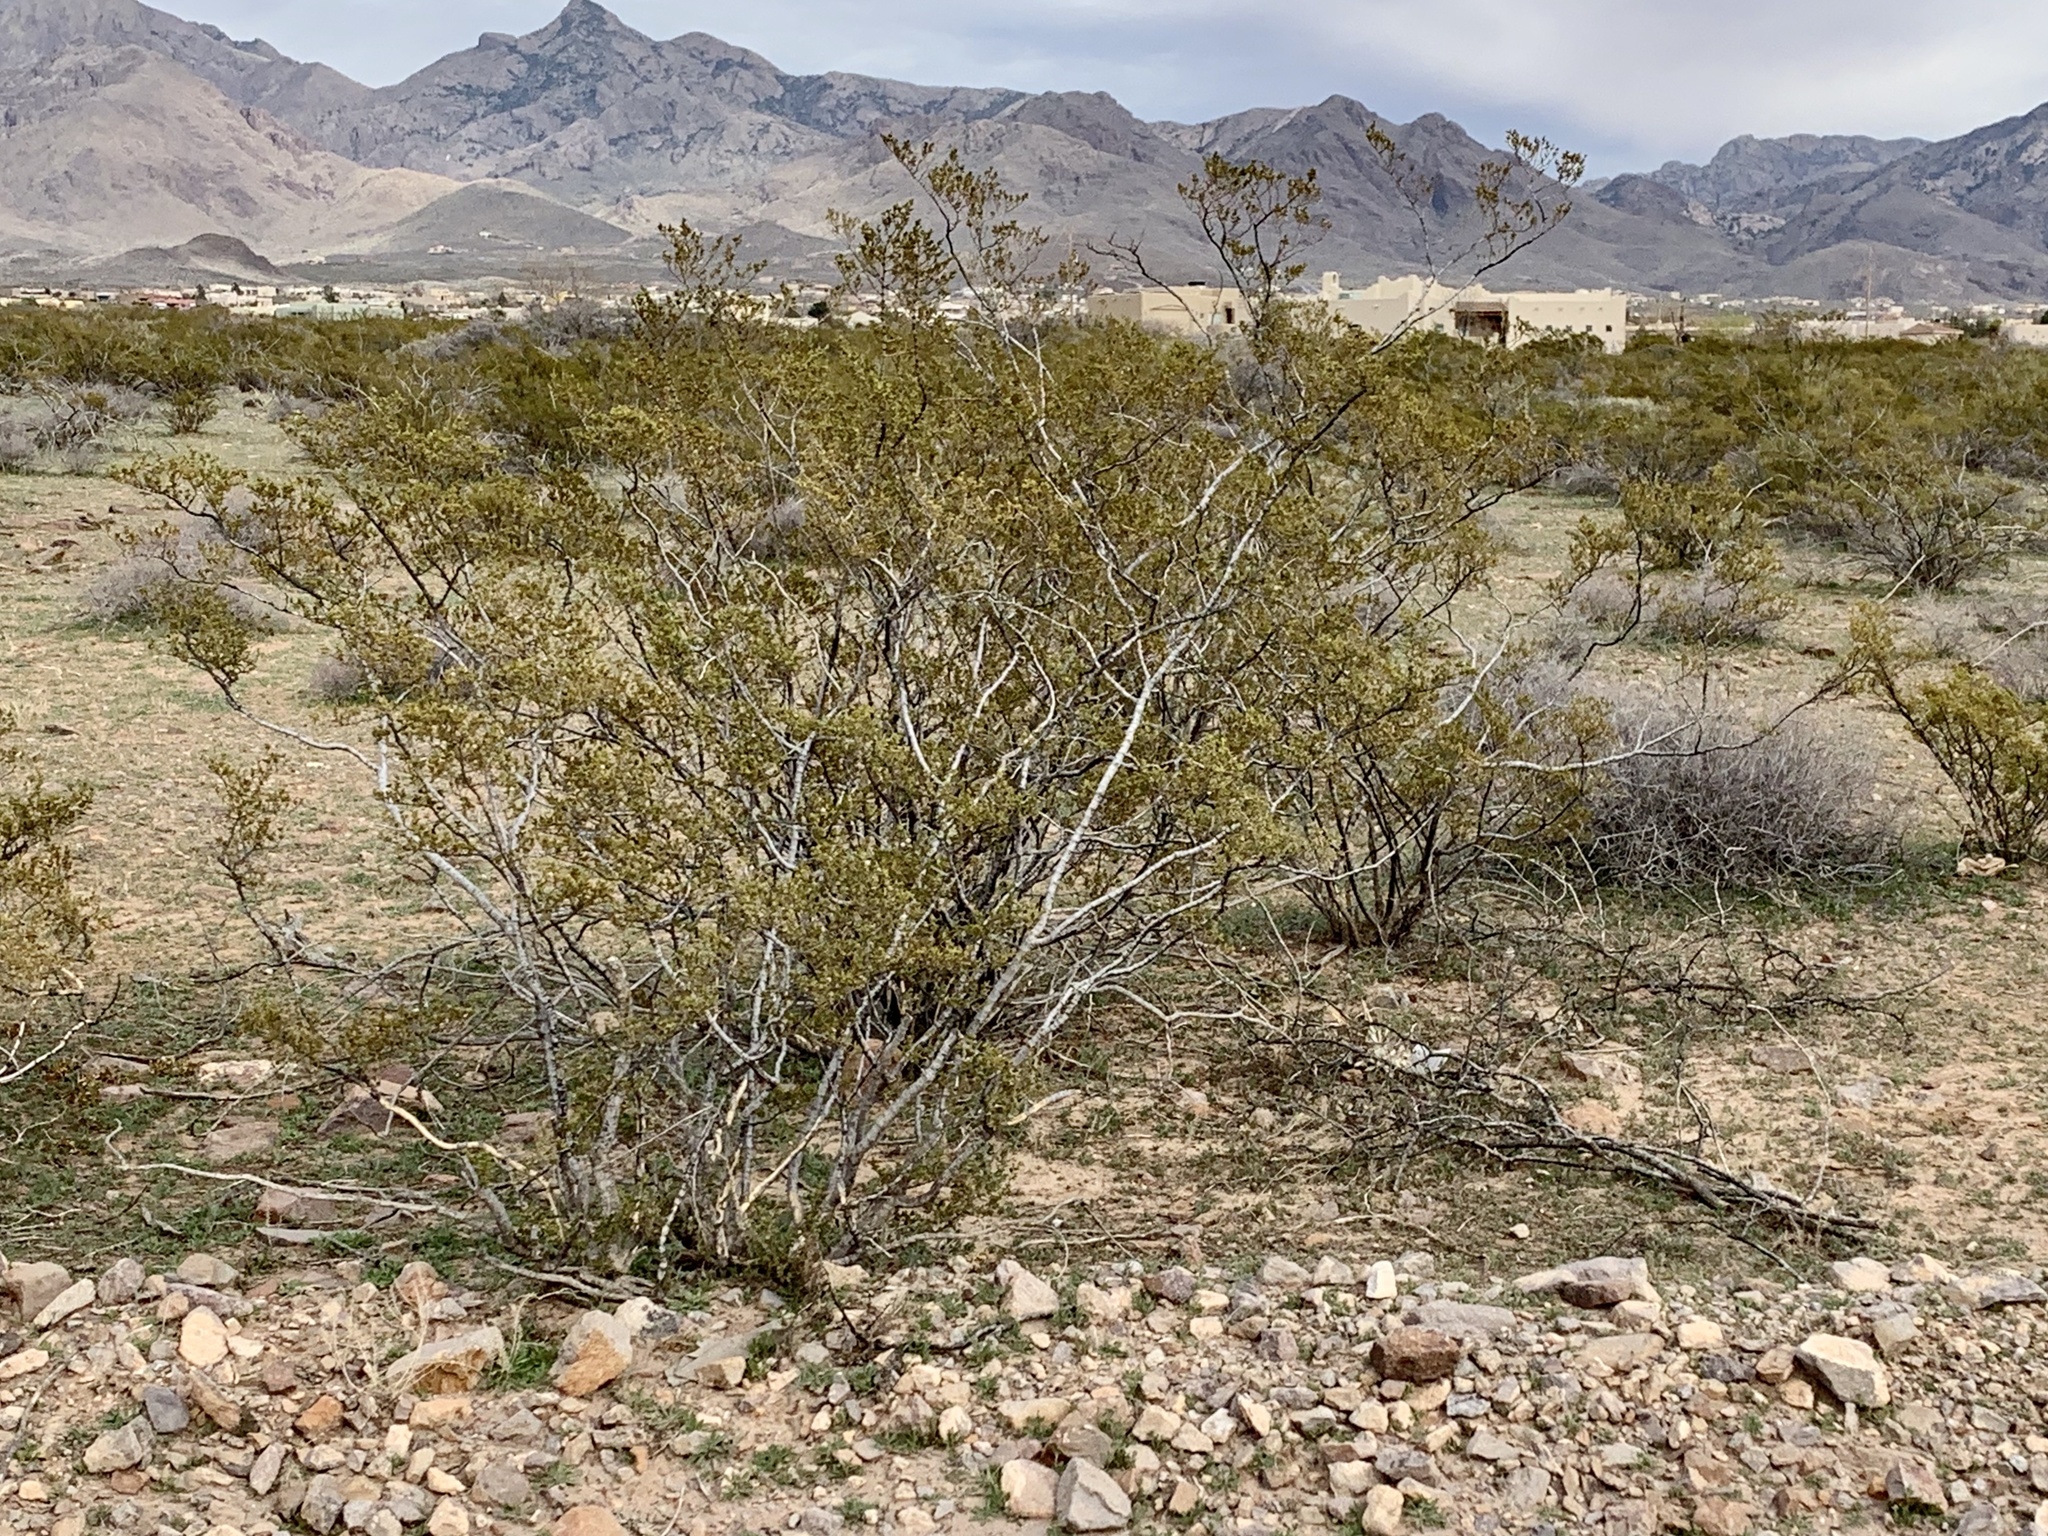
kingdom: Plantae
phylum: Tracheophyta
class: Magnoliopsida
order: Zygophyllales
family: Zygophyllaceae
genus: Larrea
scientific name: Larrea tridentata
